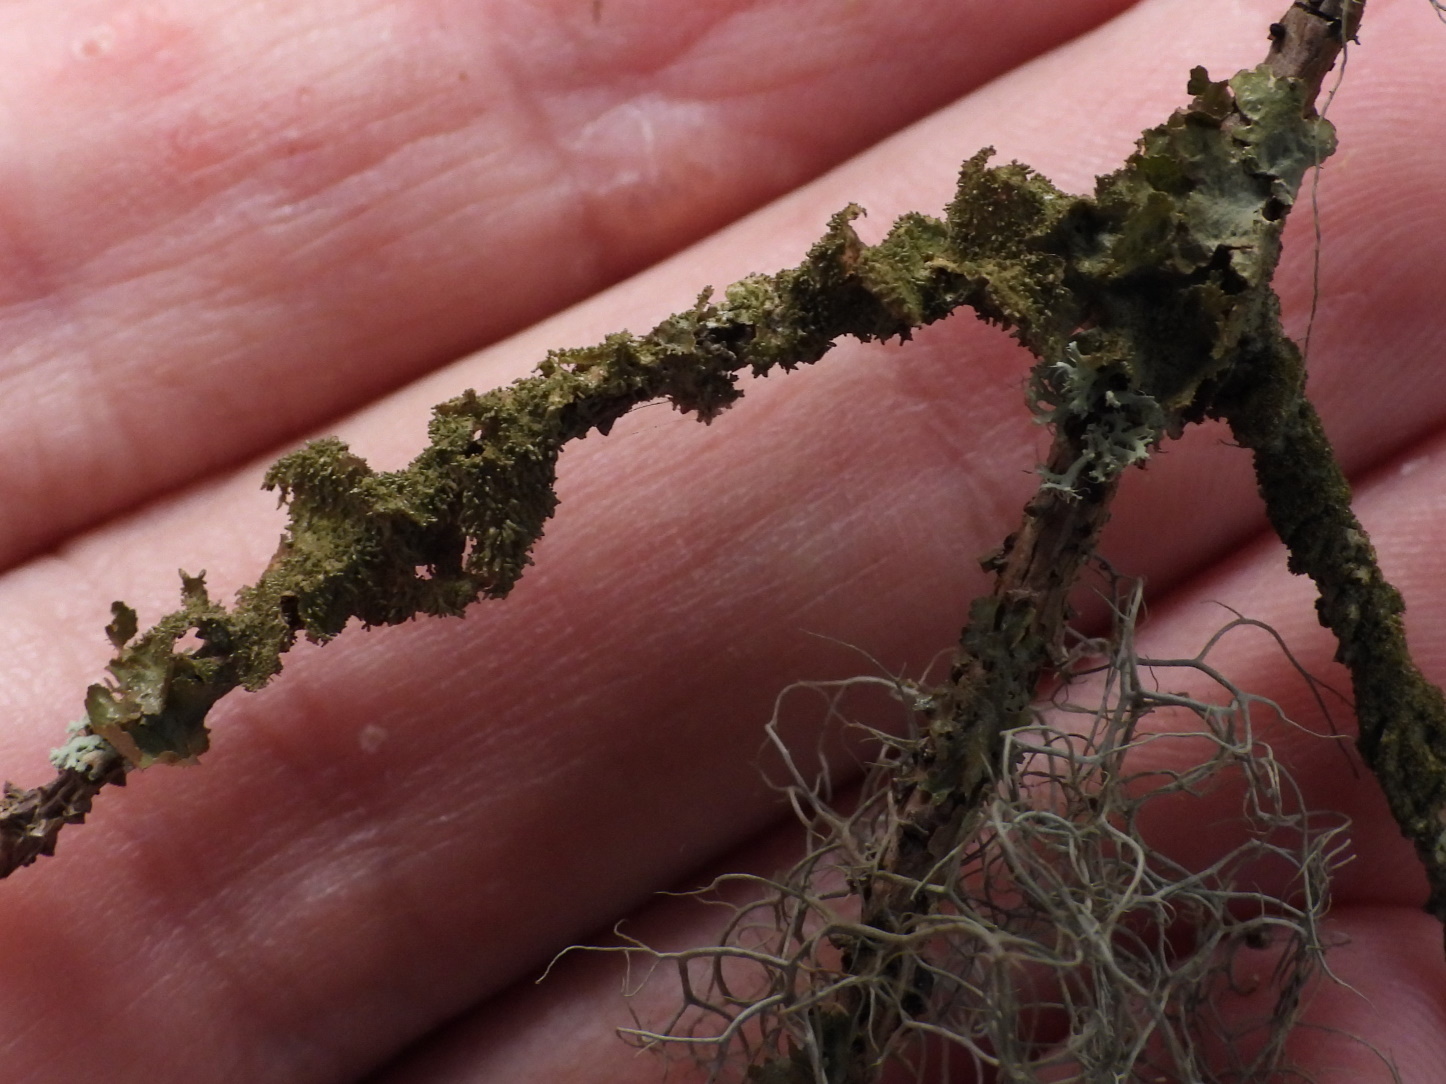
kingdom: Fungi
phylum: Ascomycota
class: Lecanoromycetes
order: Lecanorales
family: Parmeliaceae
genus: Melanohalea
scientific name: Melanohalea exasperatula
